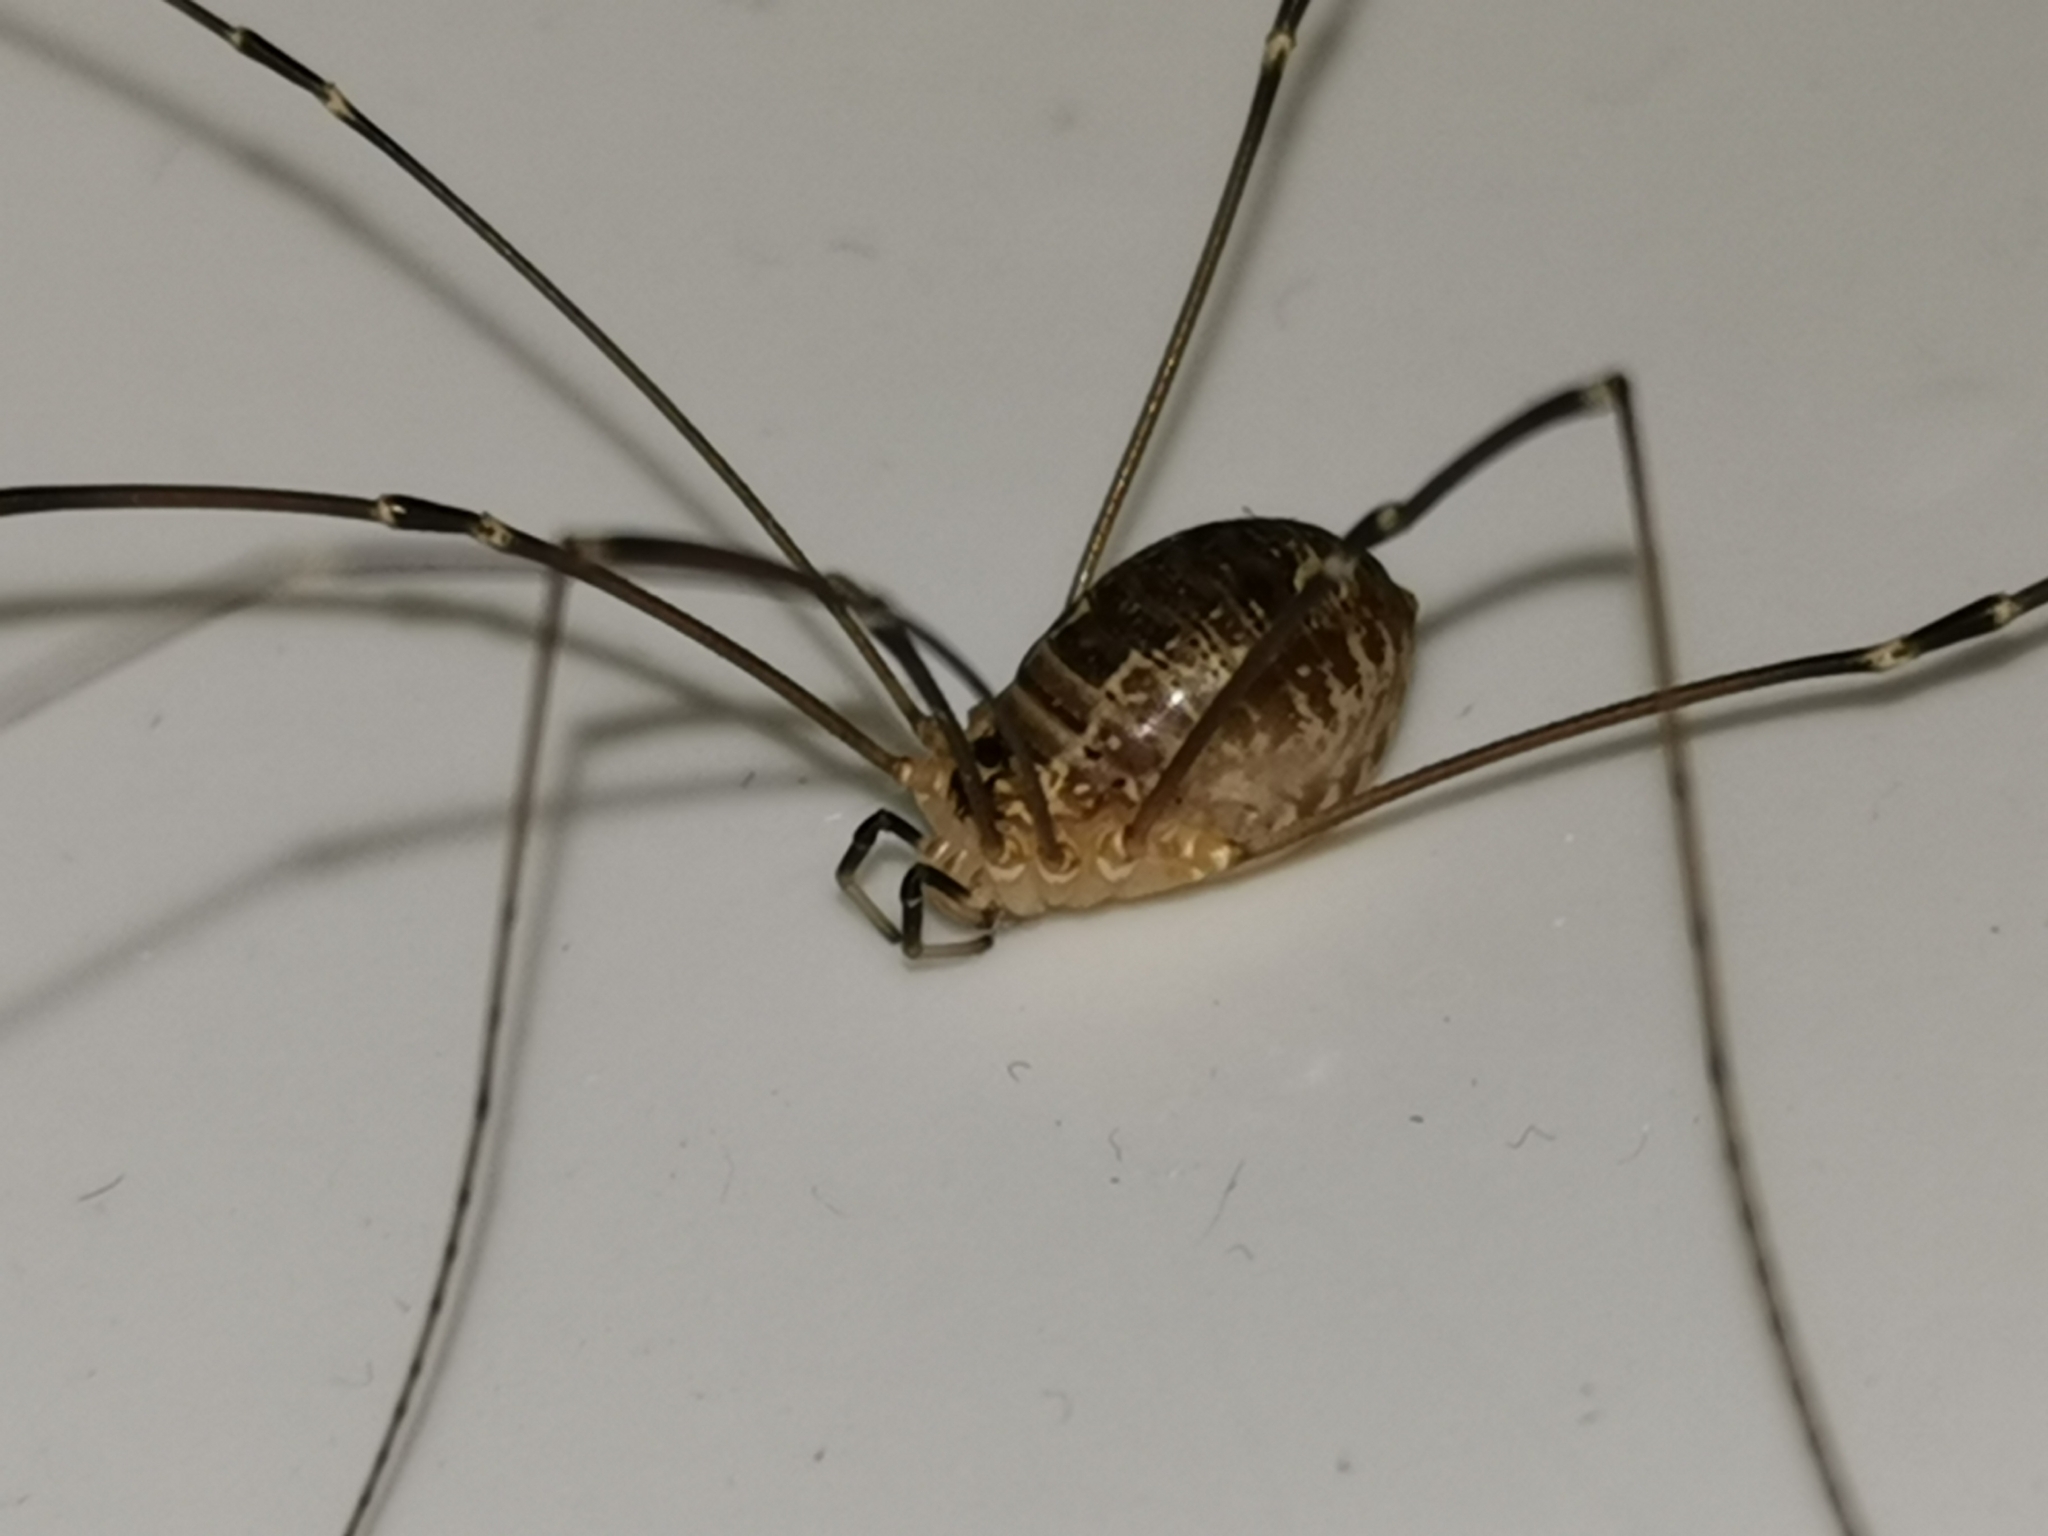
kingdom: Animalia
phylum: Arthropoda
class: Arachnida
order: Opiliones
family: Sclerosomatidae
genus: Leiobunum
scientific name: Leiobunum gracile
